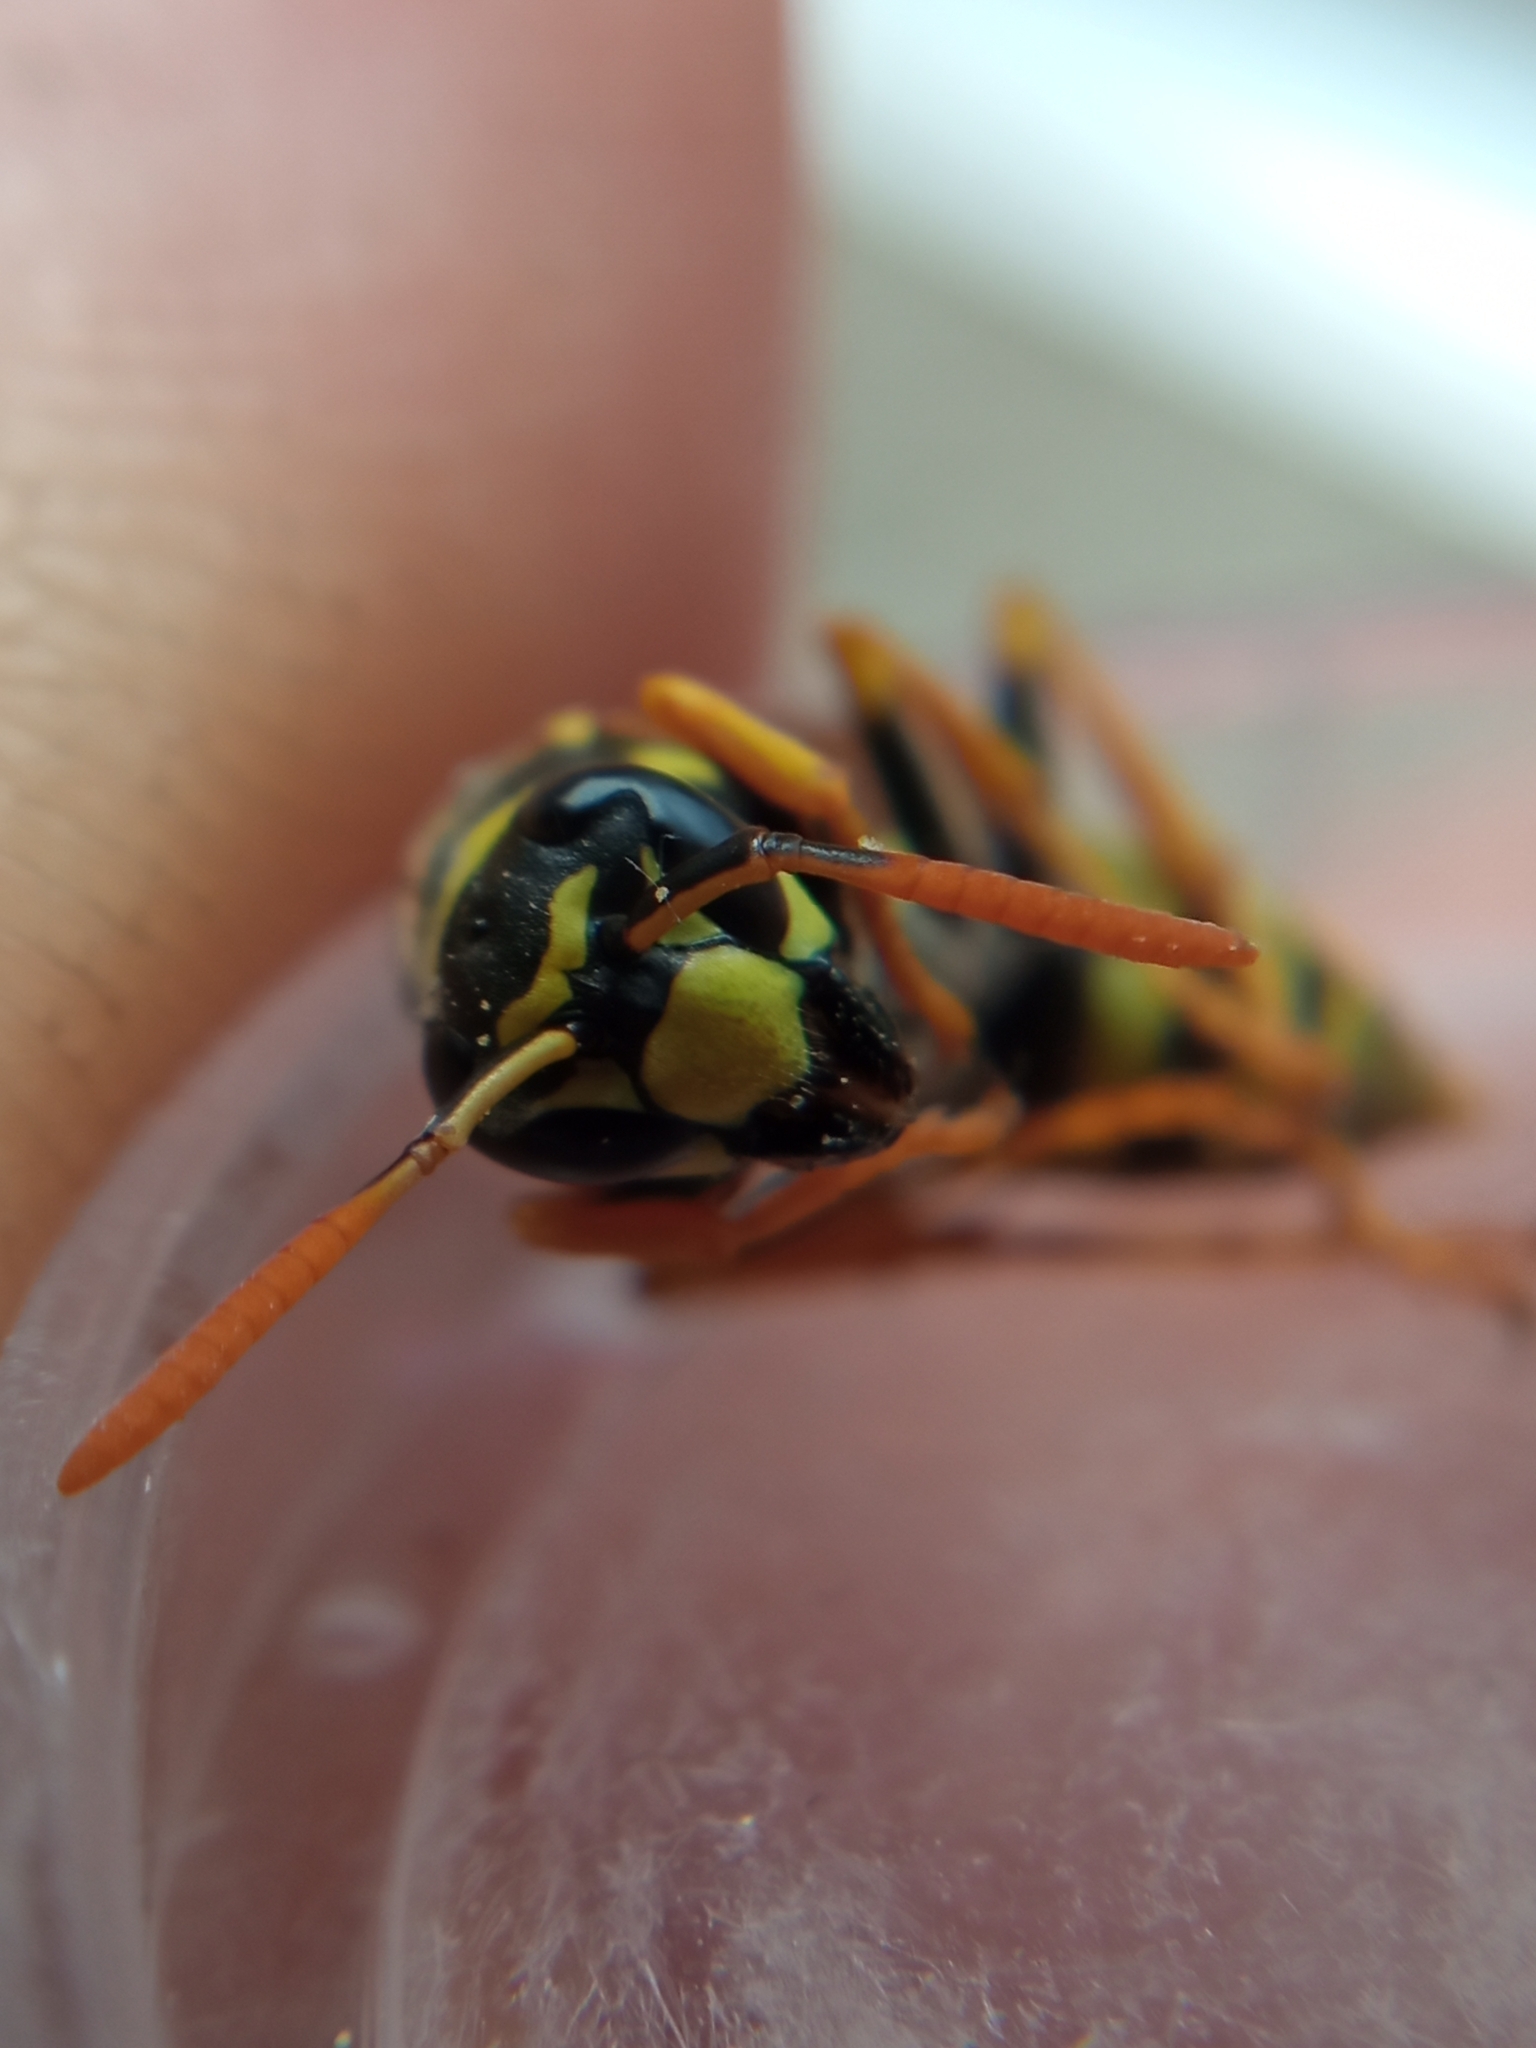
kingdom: Animalia
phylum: Arthropoda
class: Insecta
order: Hymenoptera
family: Eumenidae
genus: Polistes
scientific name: Polistes dominula
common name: Paper wasp
